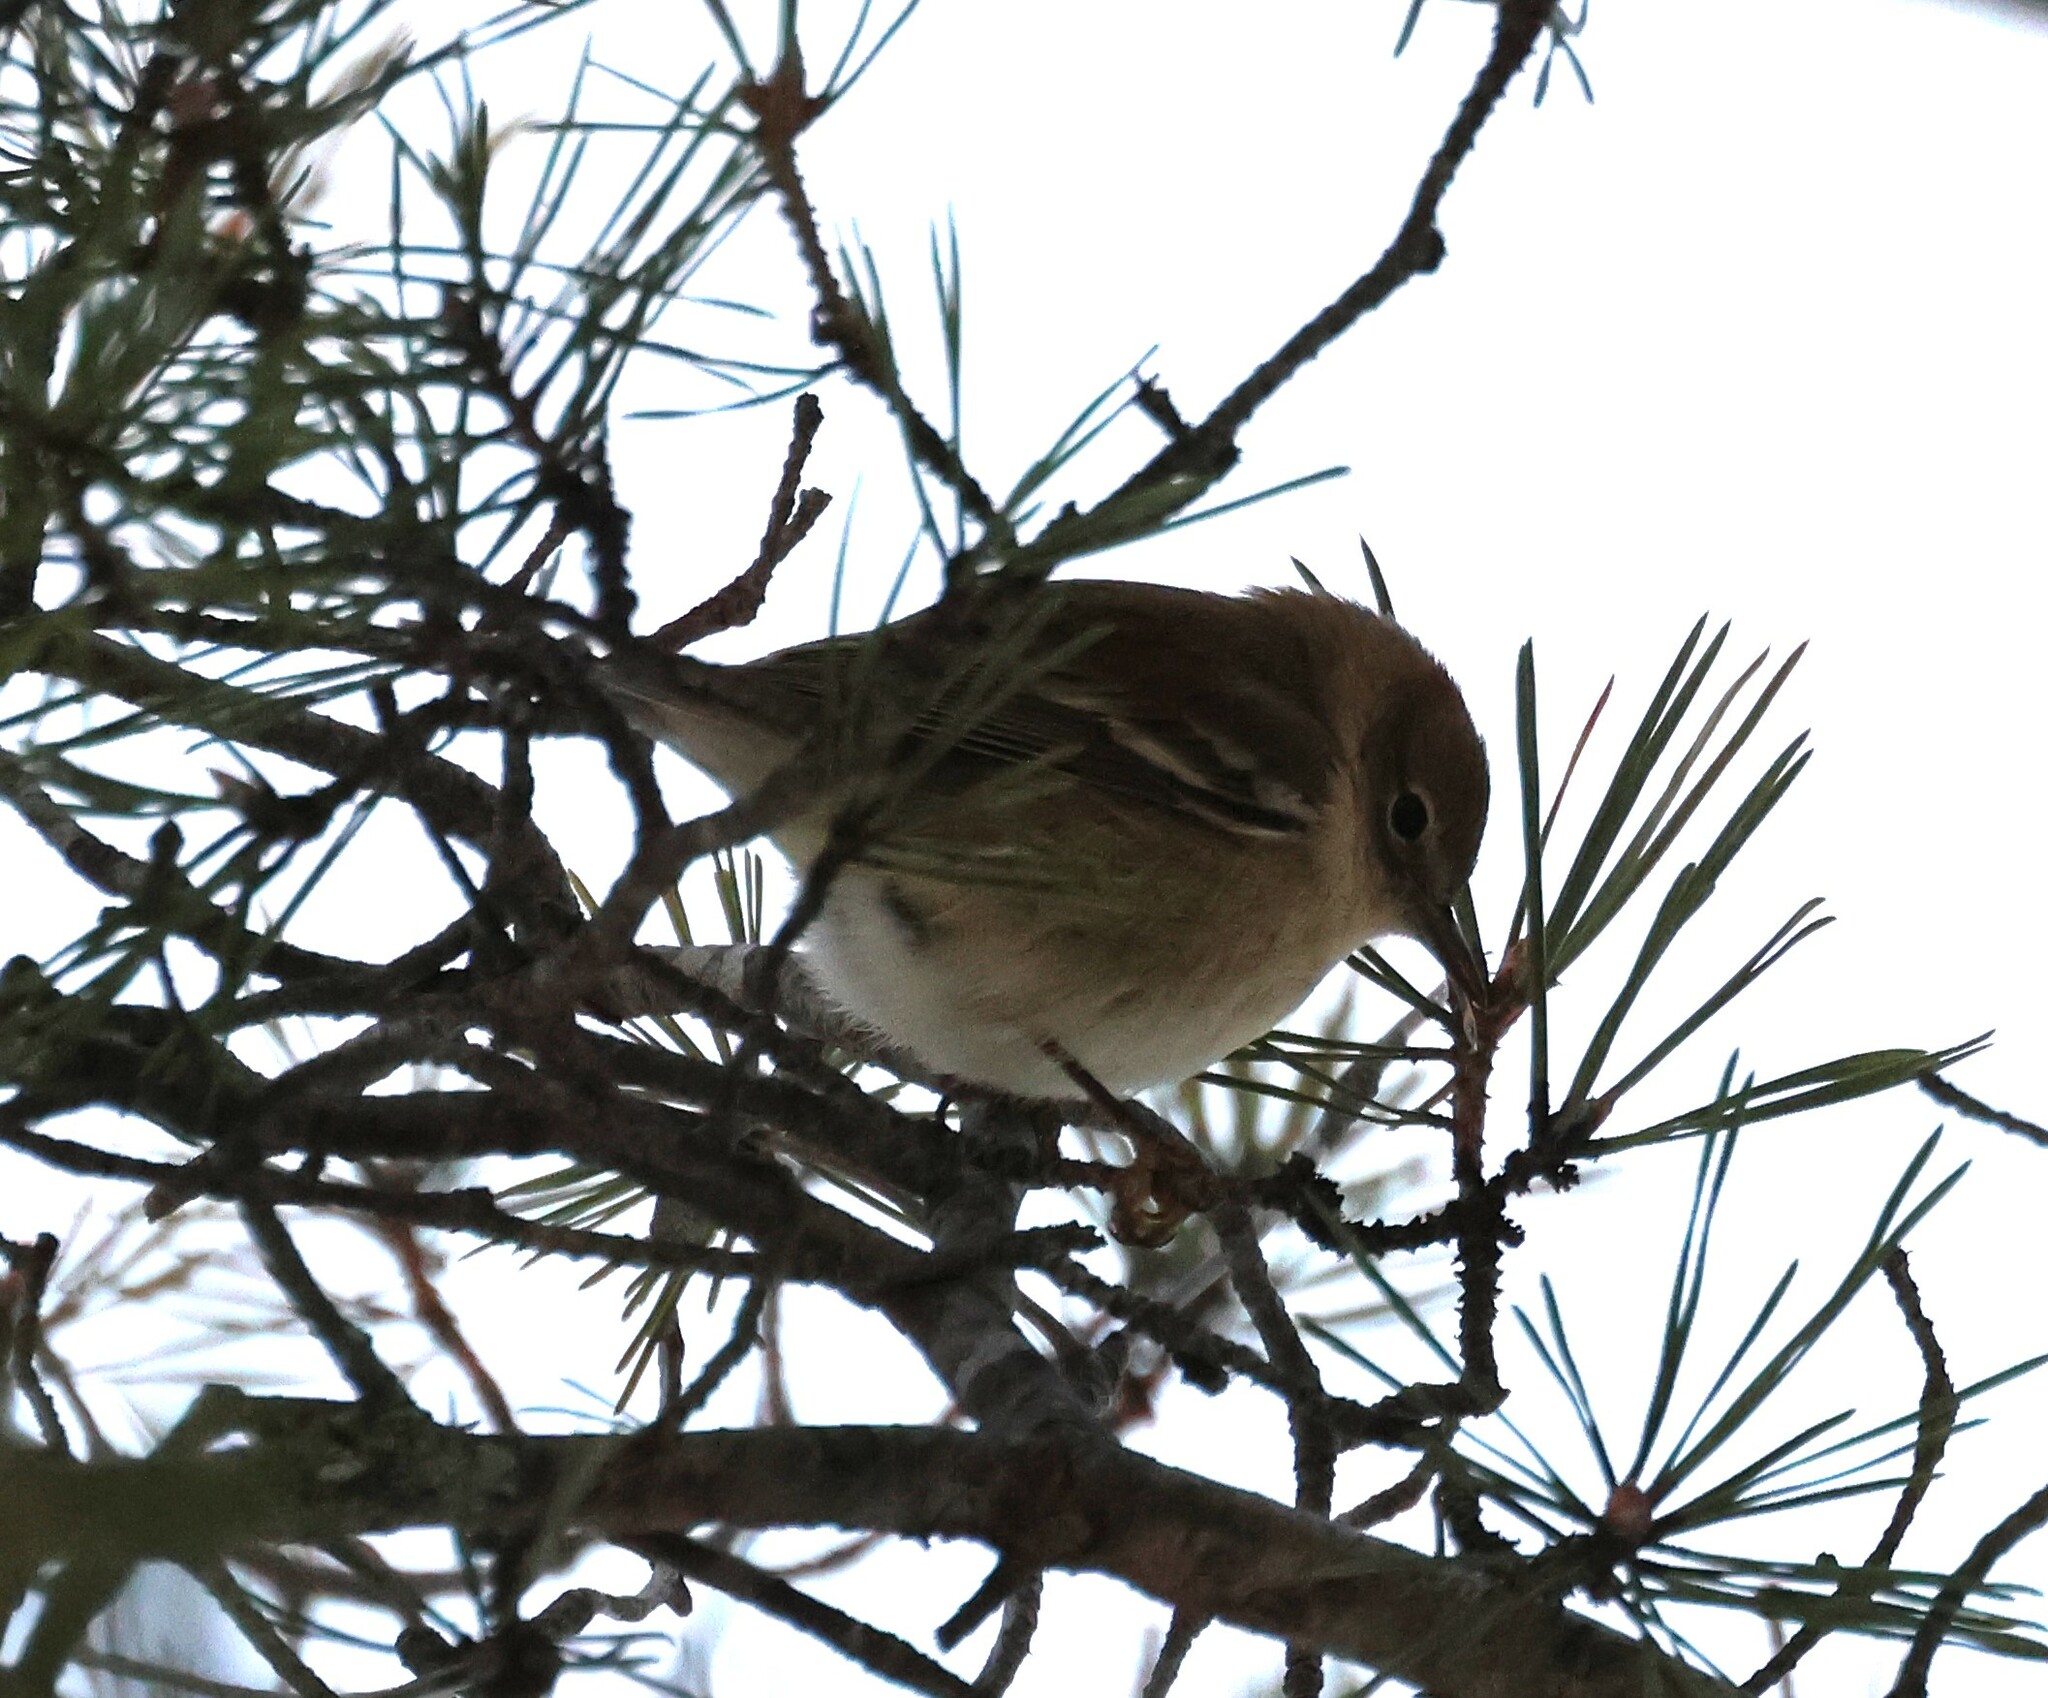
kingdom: Animalia
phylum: Chordata
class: Aves
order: Passeriformes
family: Parulidae
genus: Setophaga
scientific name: Setophaga pinus
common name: Pine warbler
